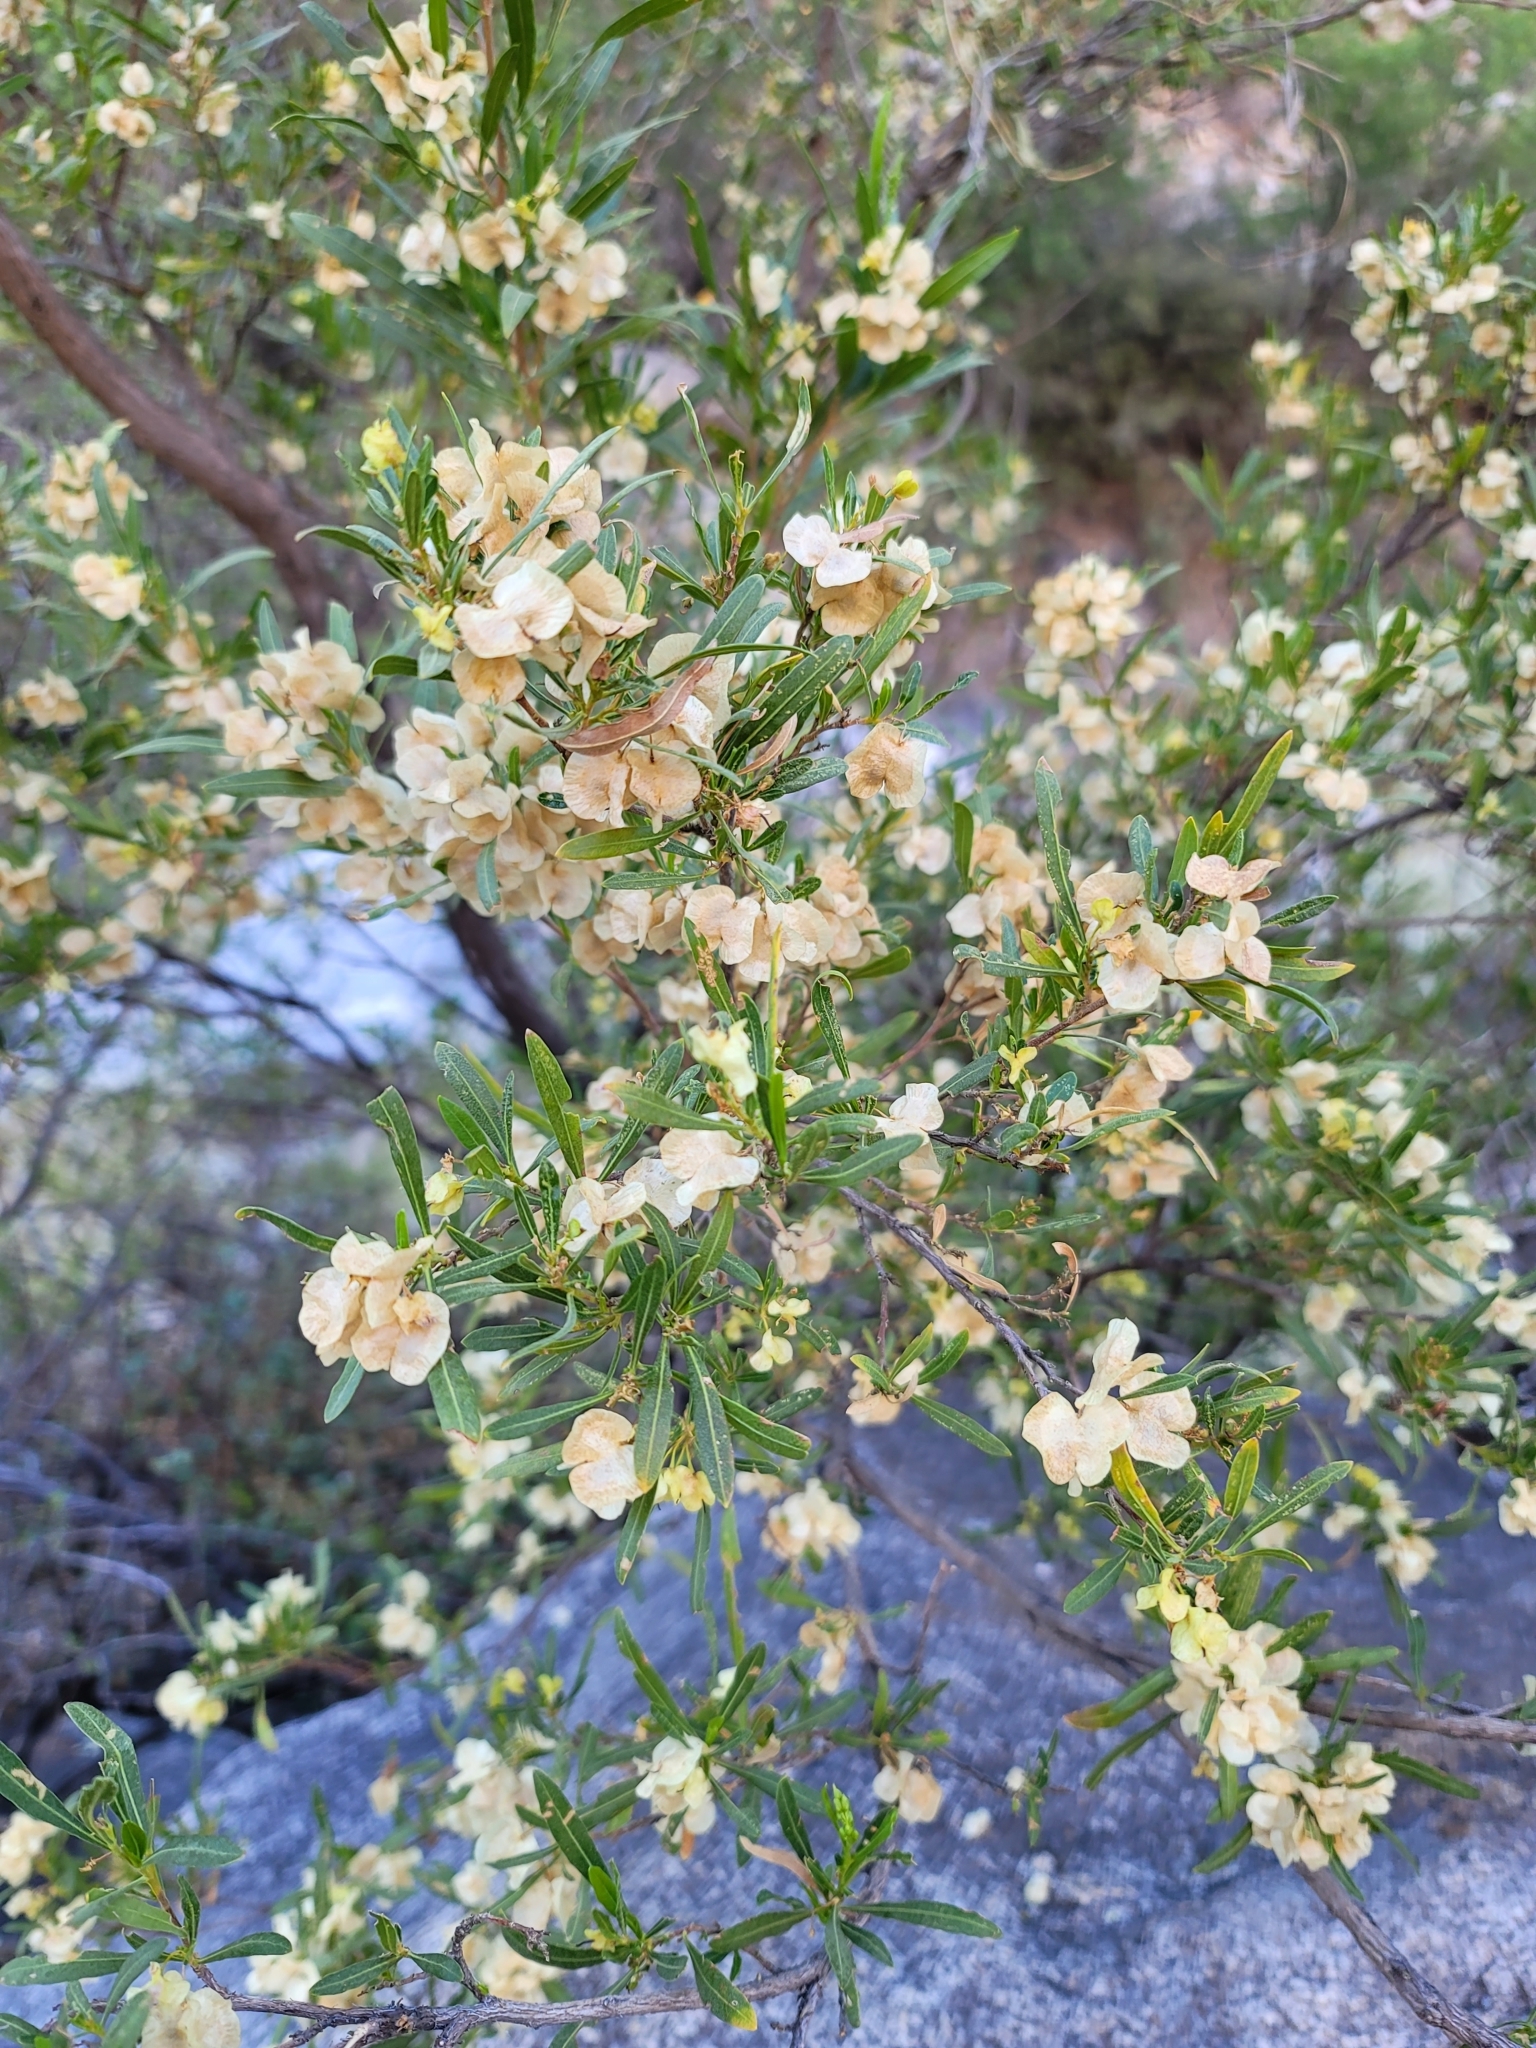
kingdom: Plantae
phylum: Tracheophyta
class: Magnoliopsida
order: Sapindales
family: Sapindaceae
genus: Dodonaea
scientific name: Dodonaea viscosa
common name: Hopbush
